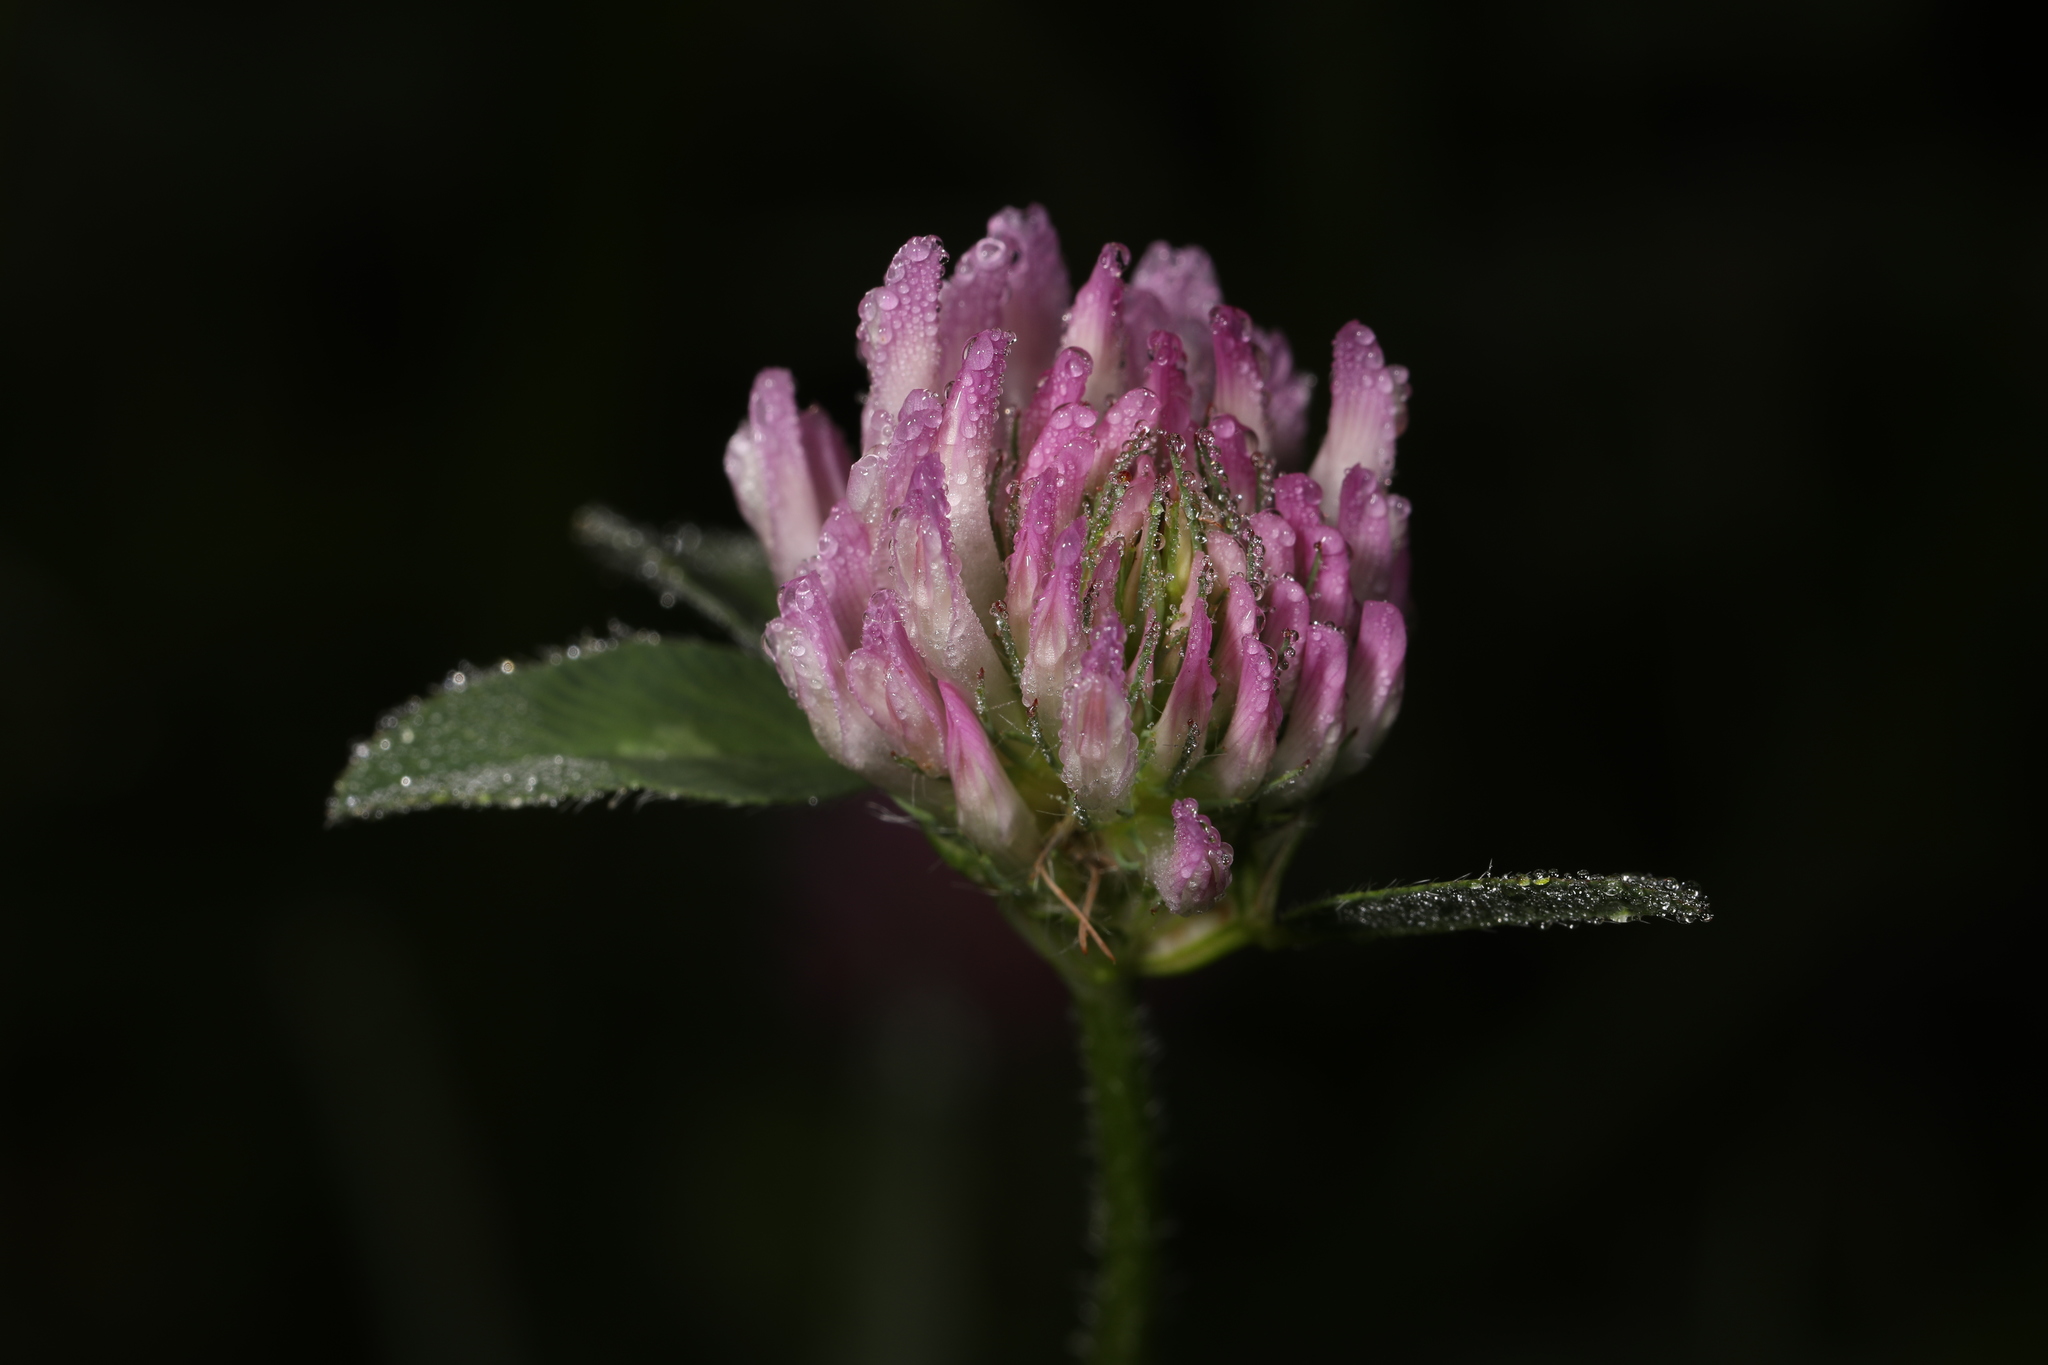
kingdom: Plantae
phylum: Tracheophyta
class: Magnoliopsida
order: Fabales
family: Fabaceae
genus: Trifolium
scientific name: Trifolium pratense
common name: Red clover
